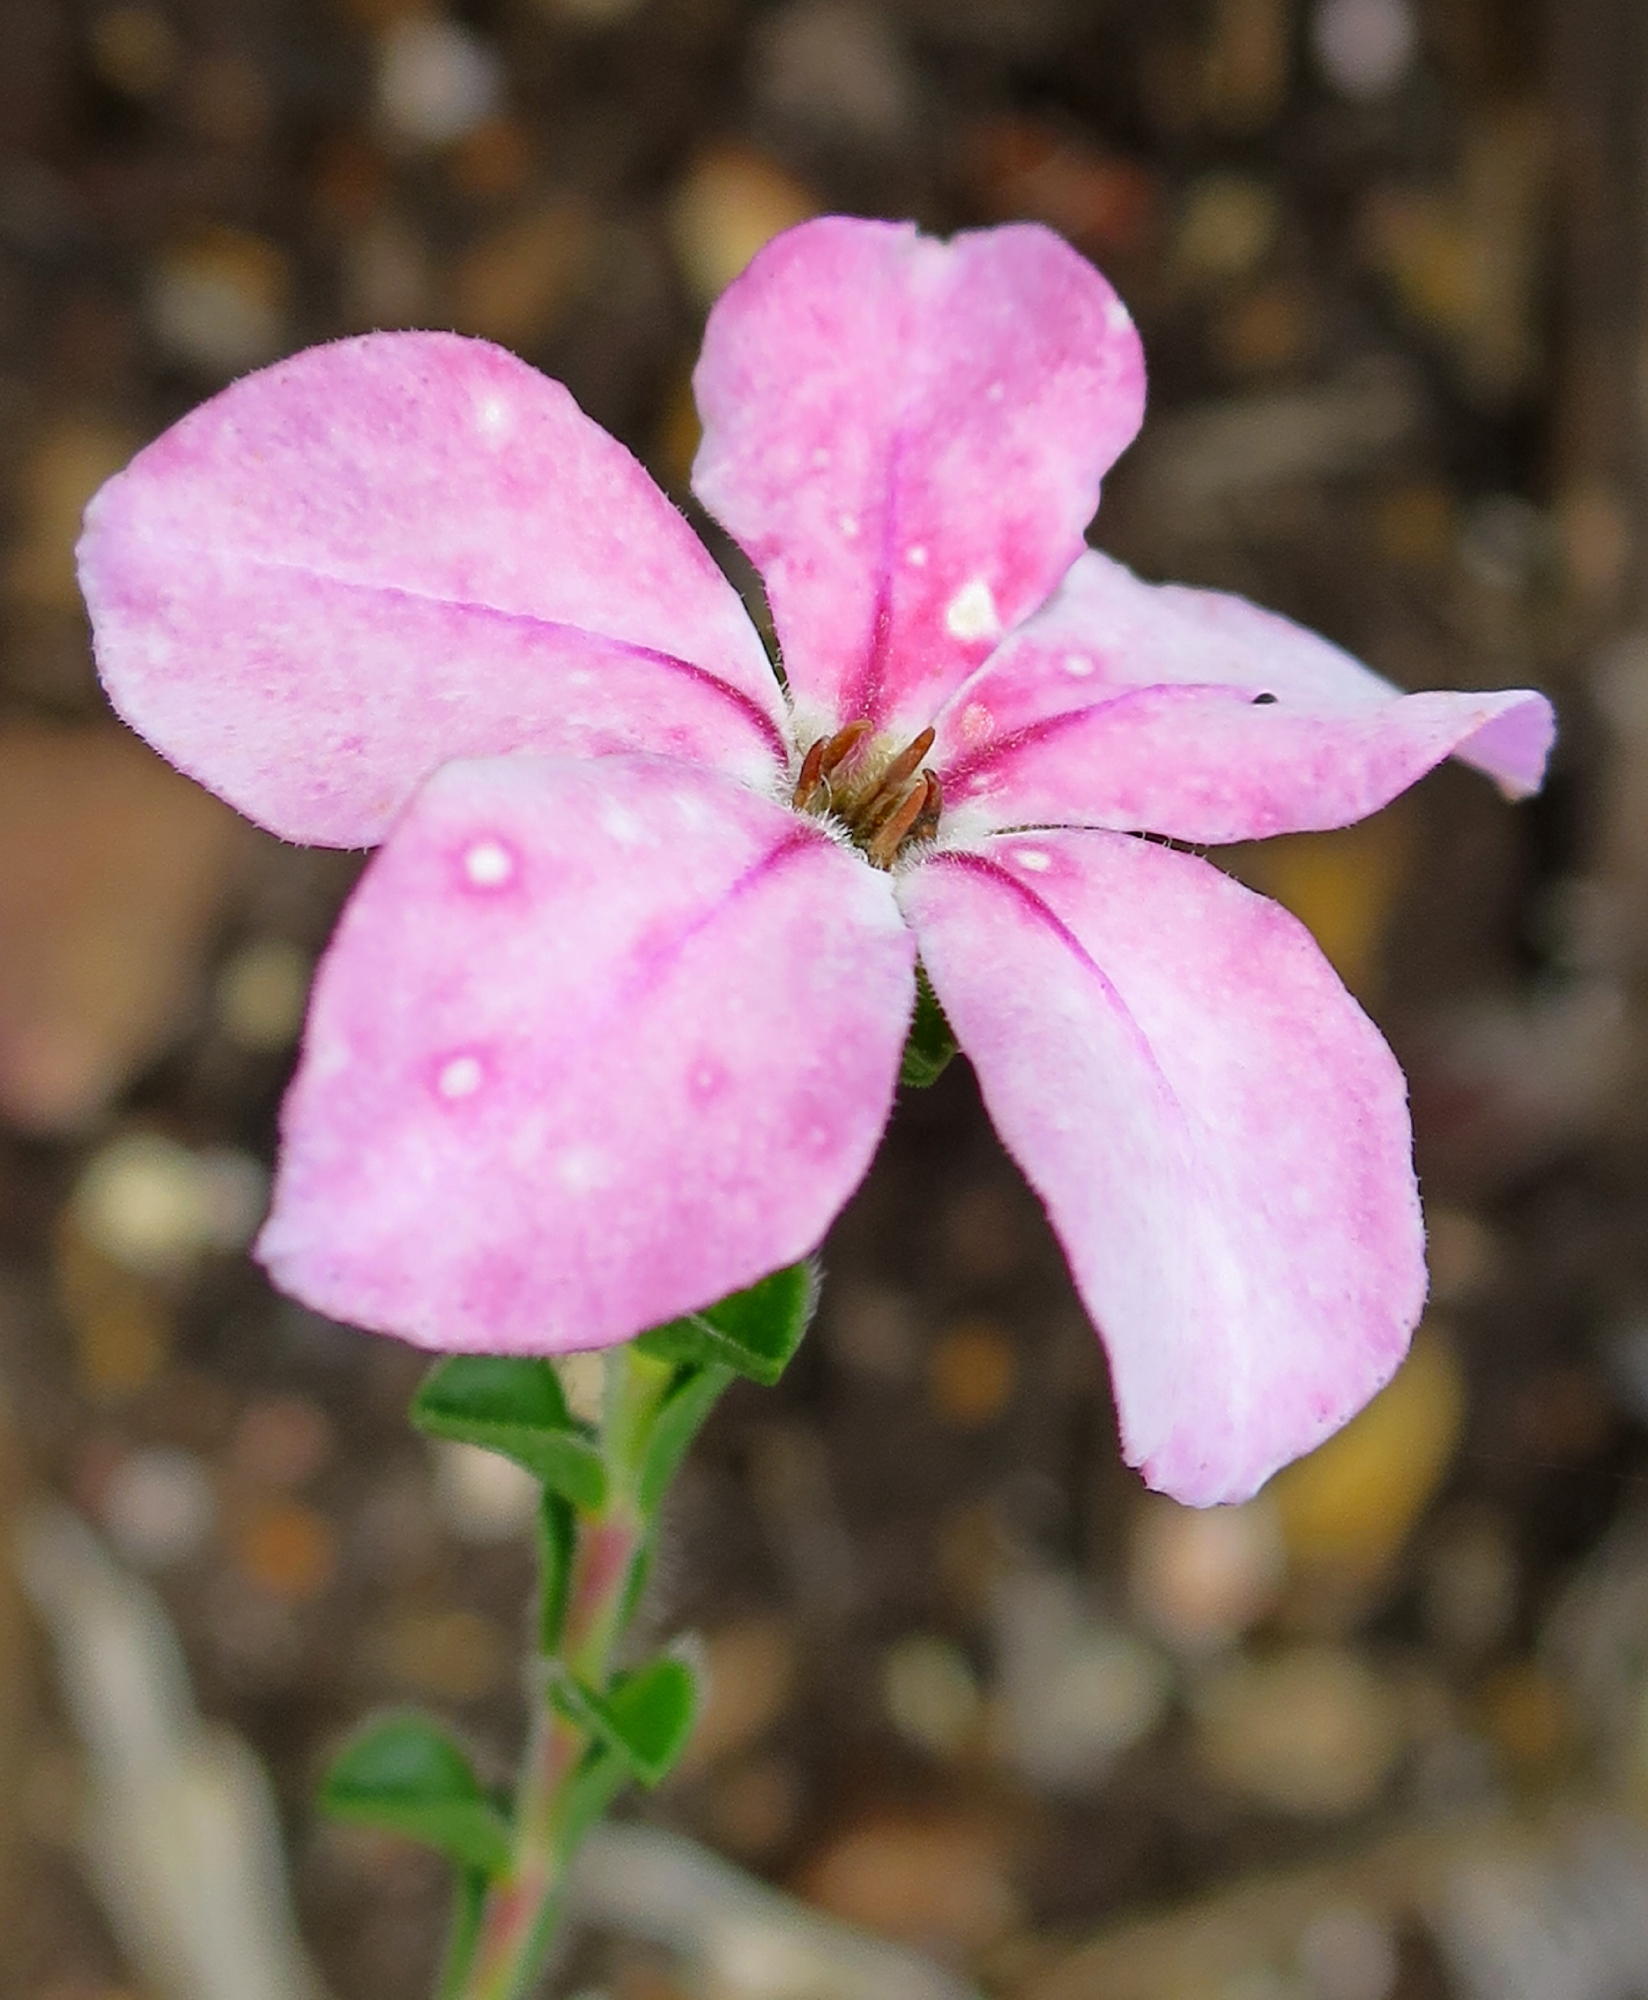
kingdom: Plantae
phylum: Tracheophyta
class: Magnoliopsida
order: Sapindales
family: Rutaceae
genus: Acmadenia
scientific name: Acmadenia tetragona
